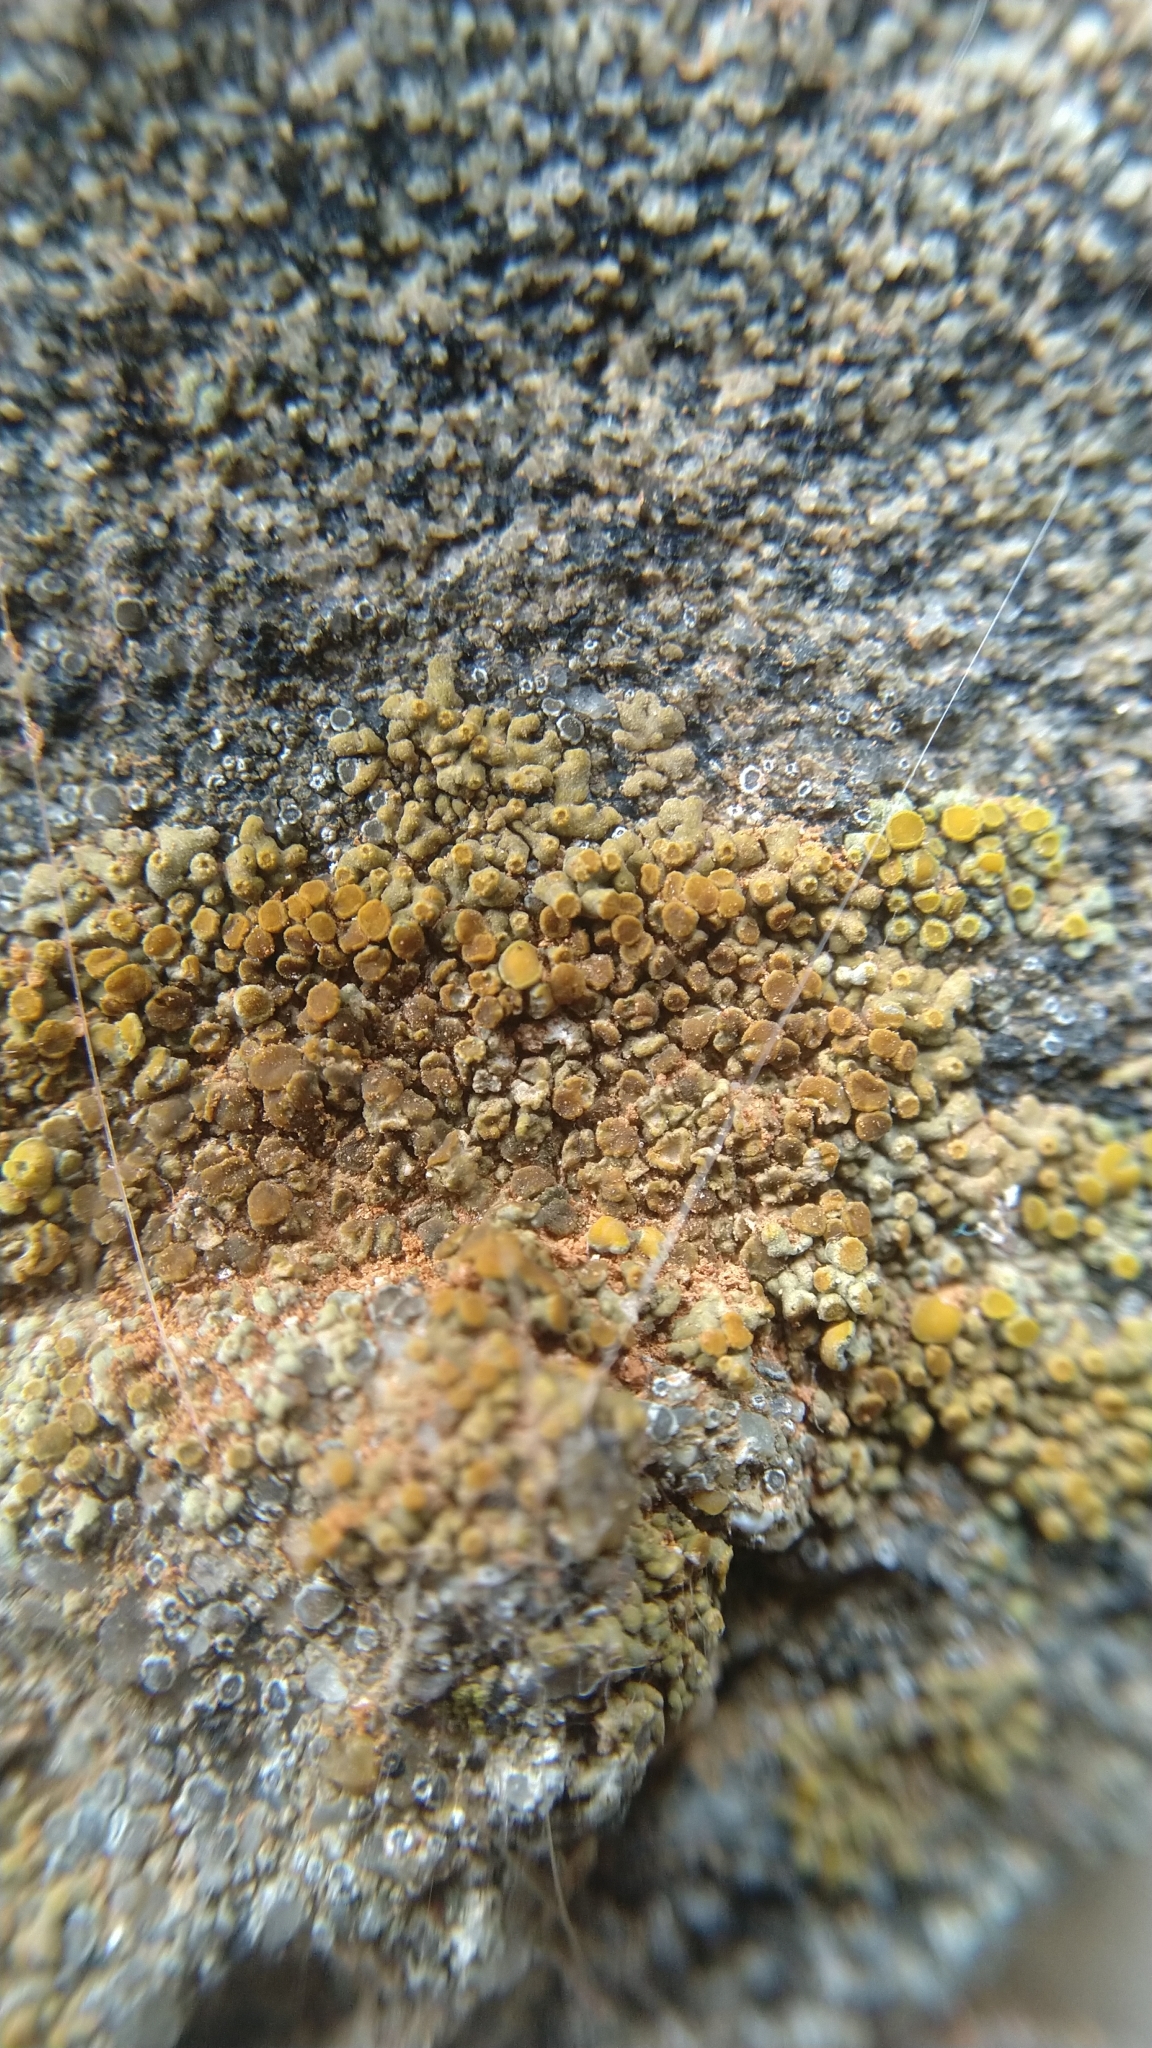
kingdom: Fungi
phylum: Ascomycota
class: Lecanoromycetes
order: Teloschistales
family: Teloschistaceae
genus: Calogaya
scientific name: Calogaya pusilla
